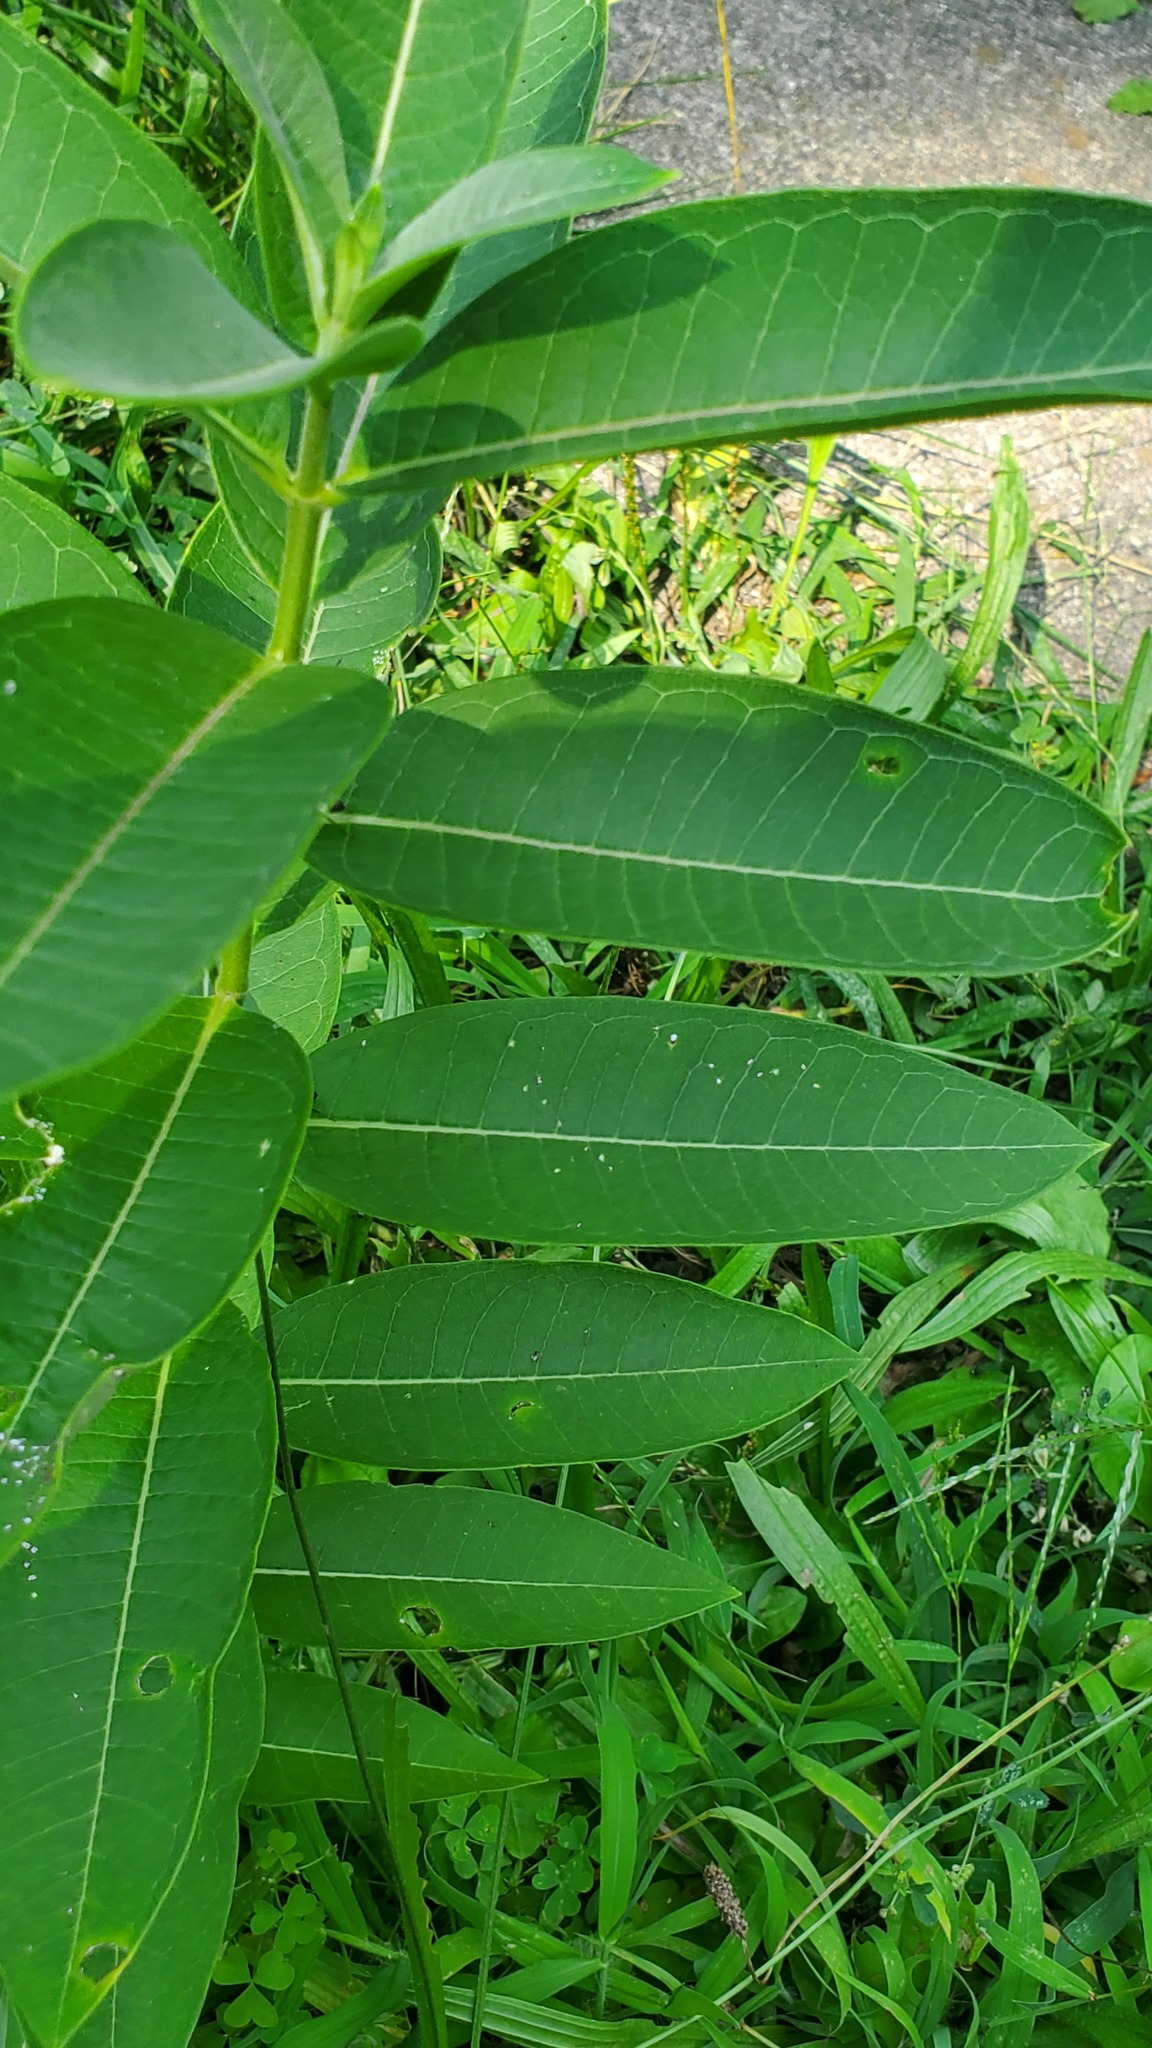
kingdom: Plantae
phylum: Tracheophyta
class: Magnoliopsida
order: Gentianales
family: Apocynaceae
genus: Asclepias
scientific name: Asclepias syriaca
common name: Common milkweed
